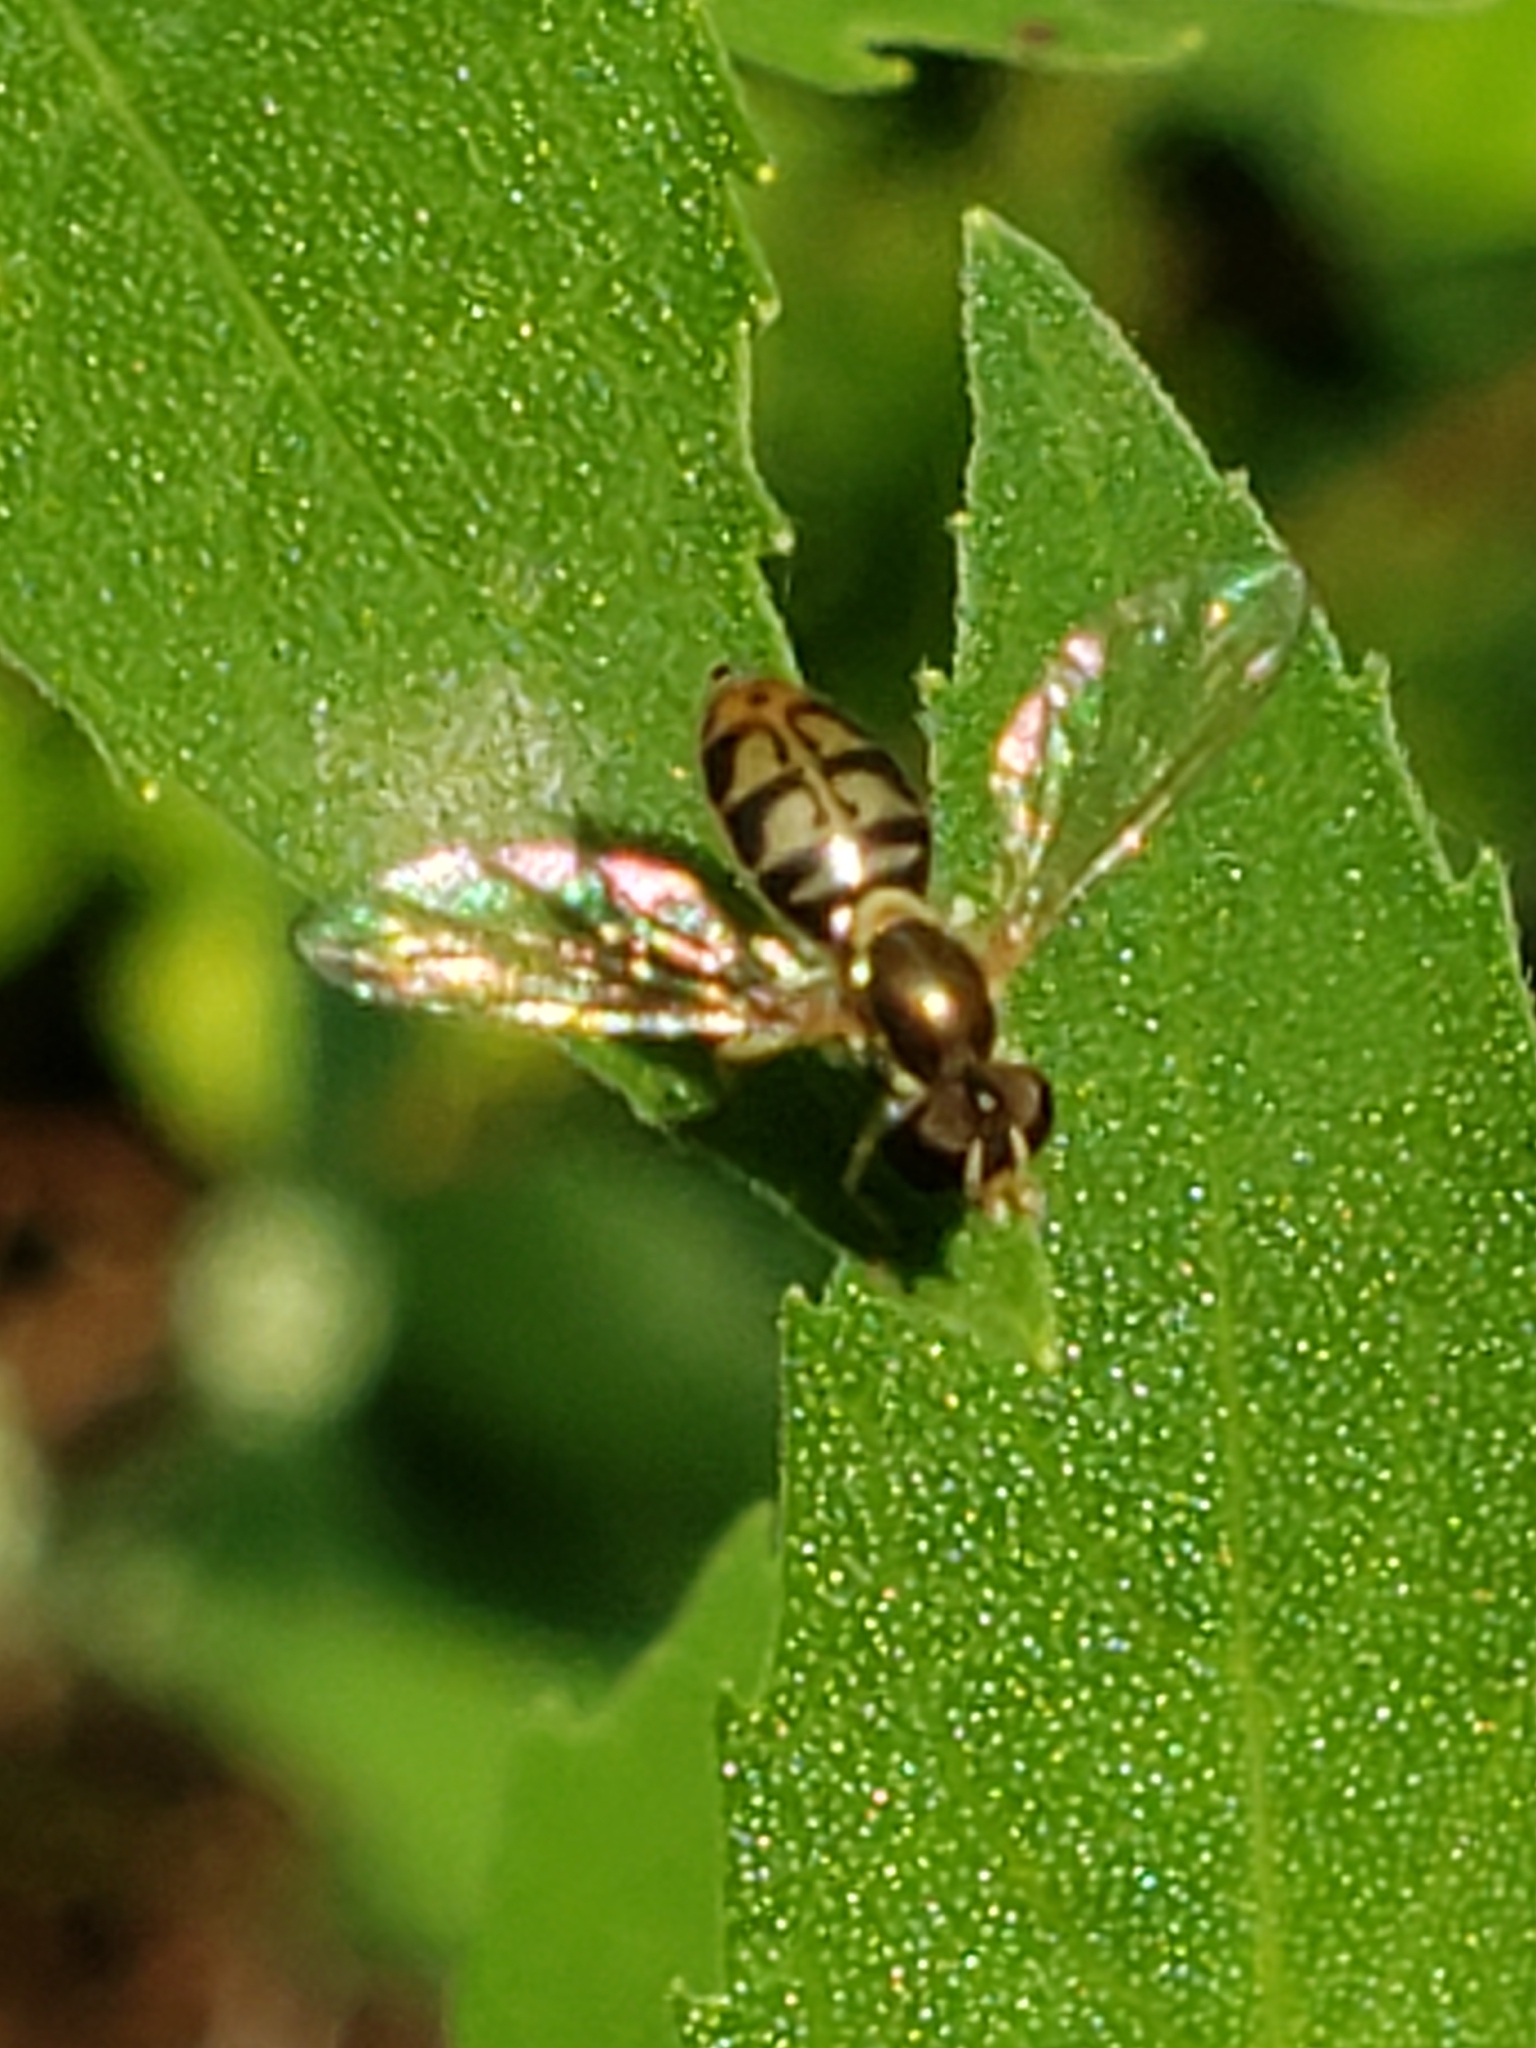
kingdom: Animalia
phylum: Arthropoda
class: Insecta
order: Diptera
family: Syrphidae
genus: Toxomerus
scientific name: Toxomerus marginatus
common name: Syrphid fly
